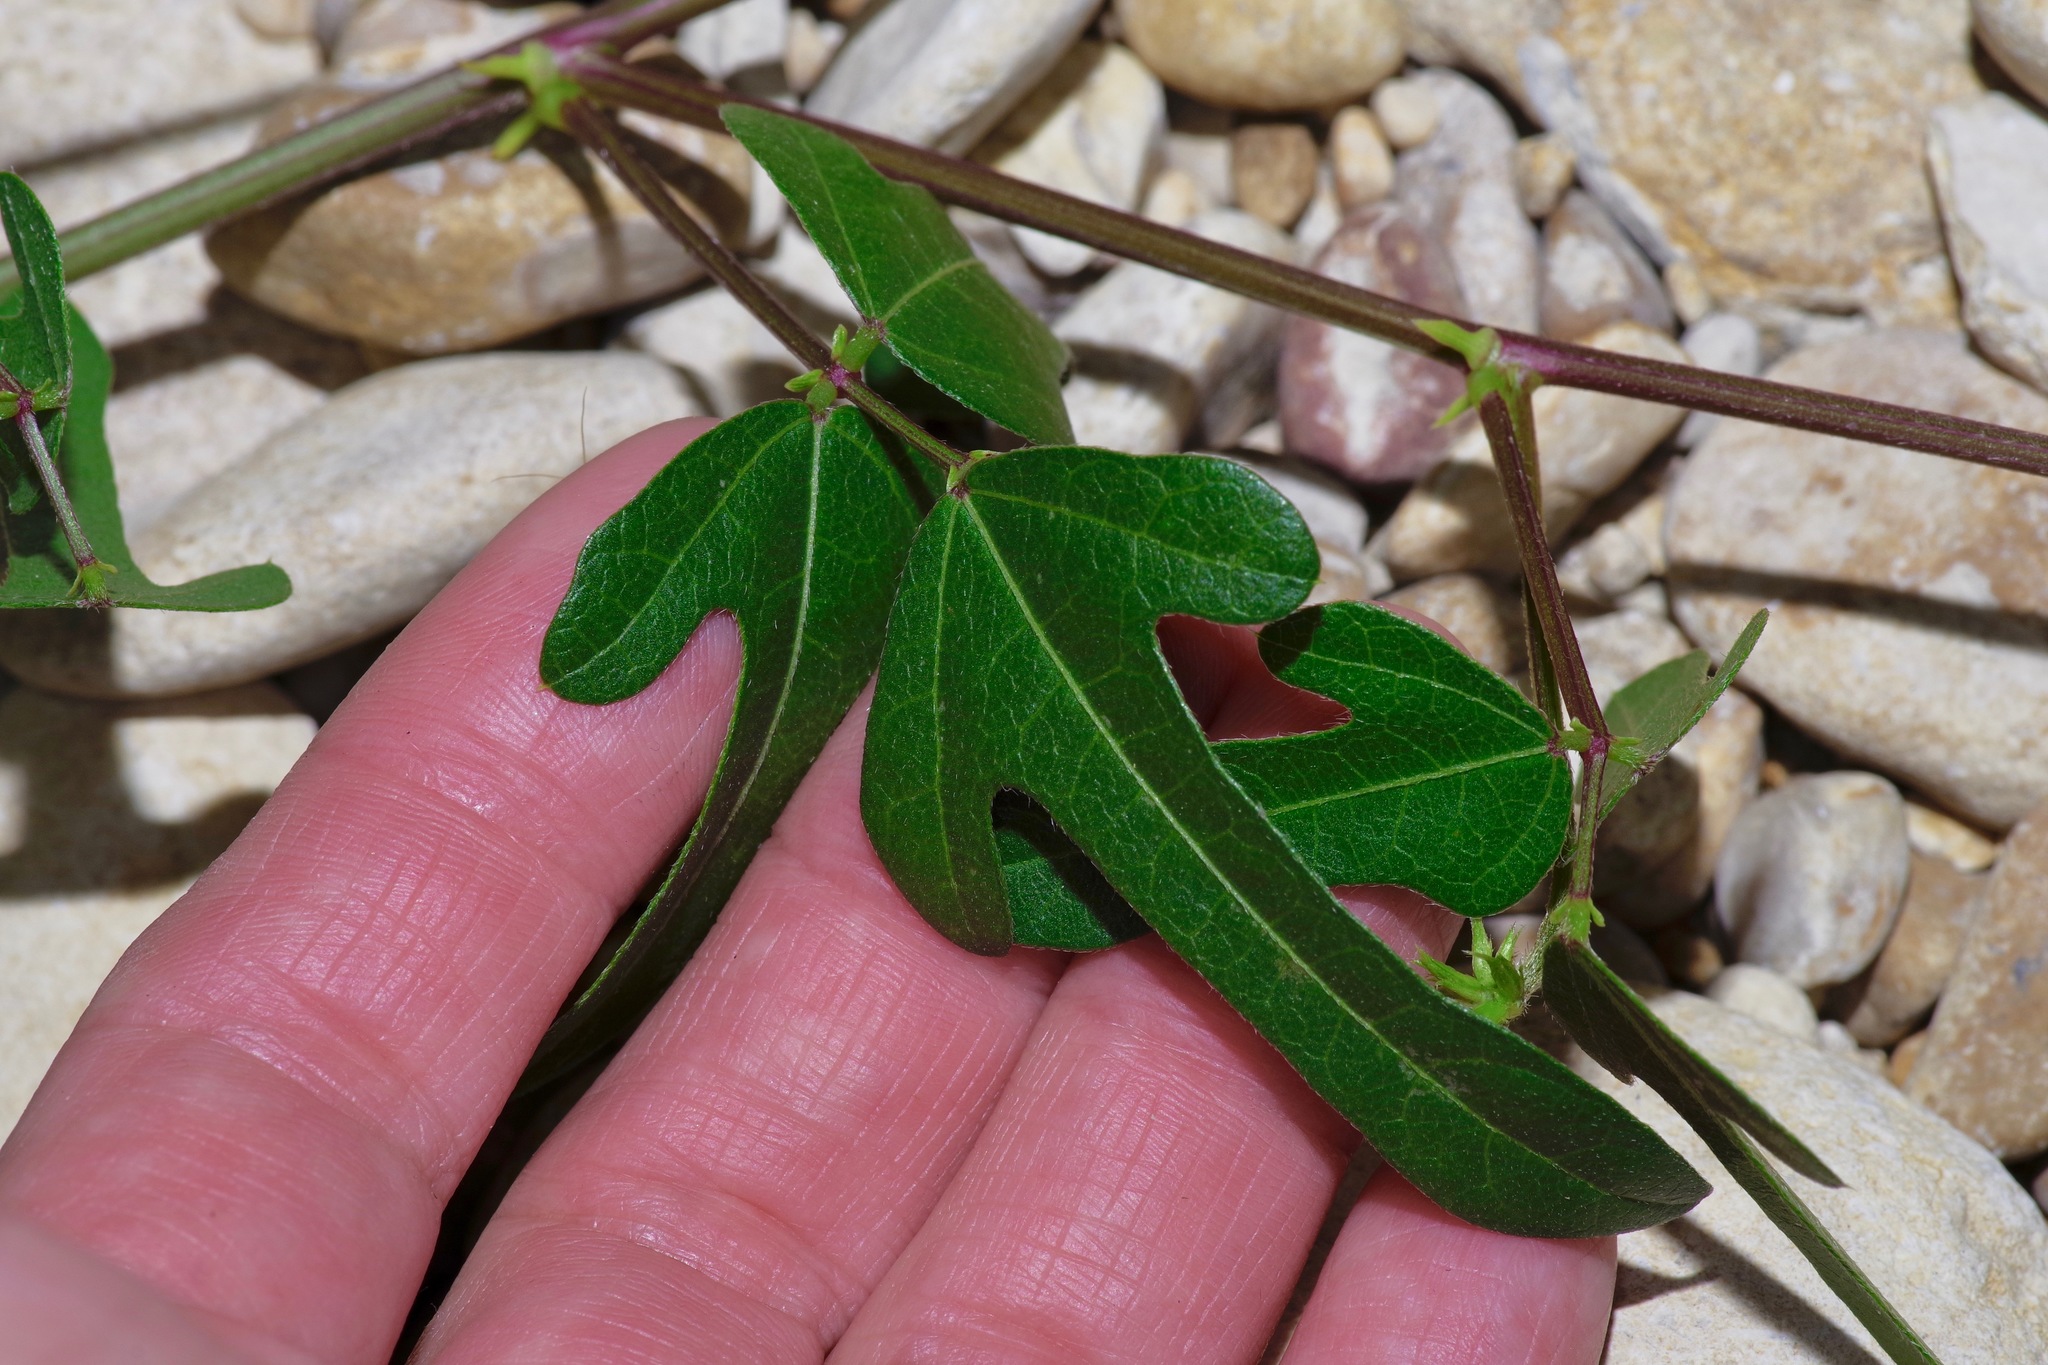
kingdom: Plantae
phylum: Tracheophyta
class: Magnoliopsida
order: Fabales
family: Fabaceae
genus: Strophostyles
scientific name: Strophostyles helvola
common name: Trailing wild bean
